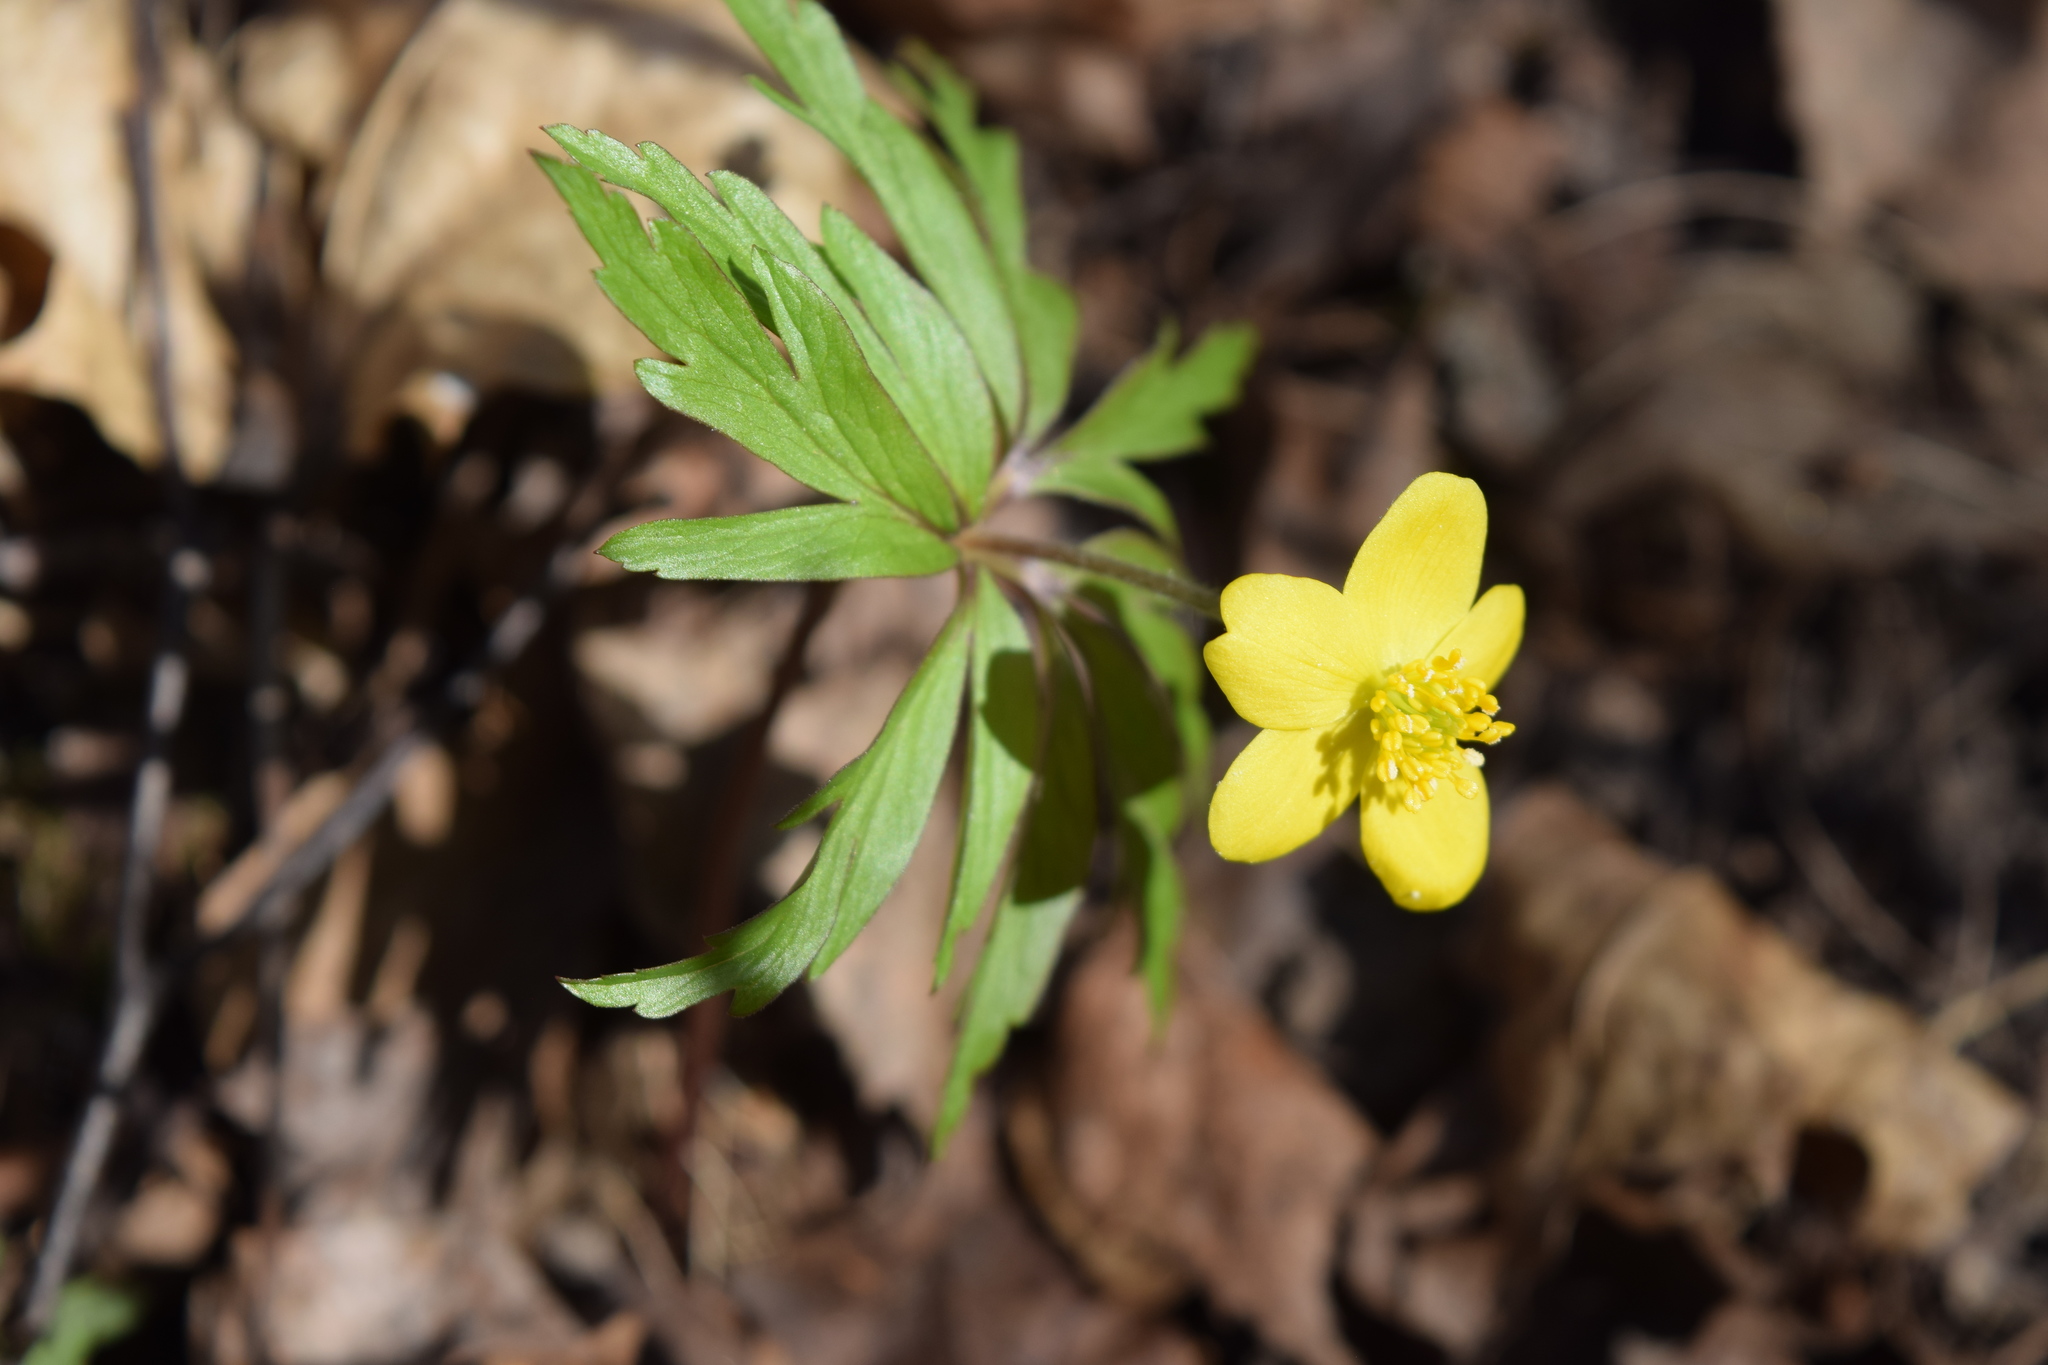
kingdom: Plantae
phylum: Tracheophyta
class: Magnoliopsida
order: Ranunculales
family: Ranunculaceae
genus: Anemone
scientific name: Anemone ranunculoides
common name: Yellow anemone
